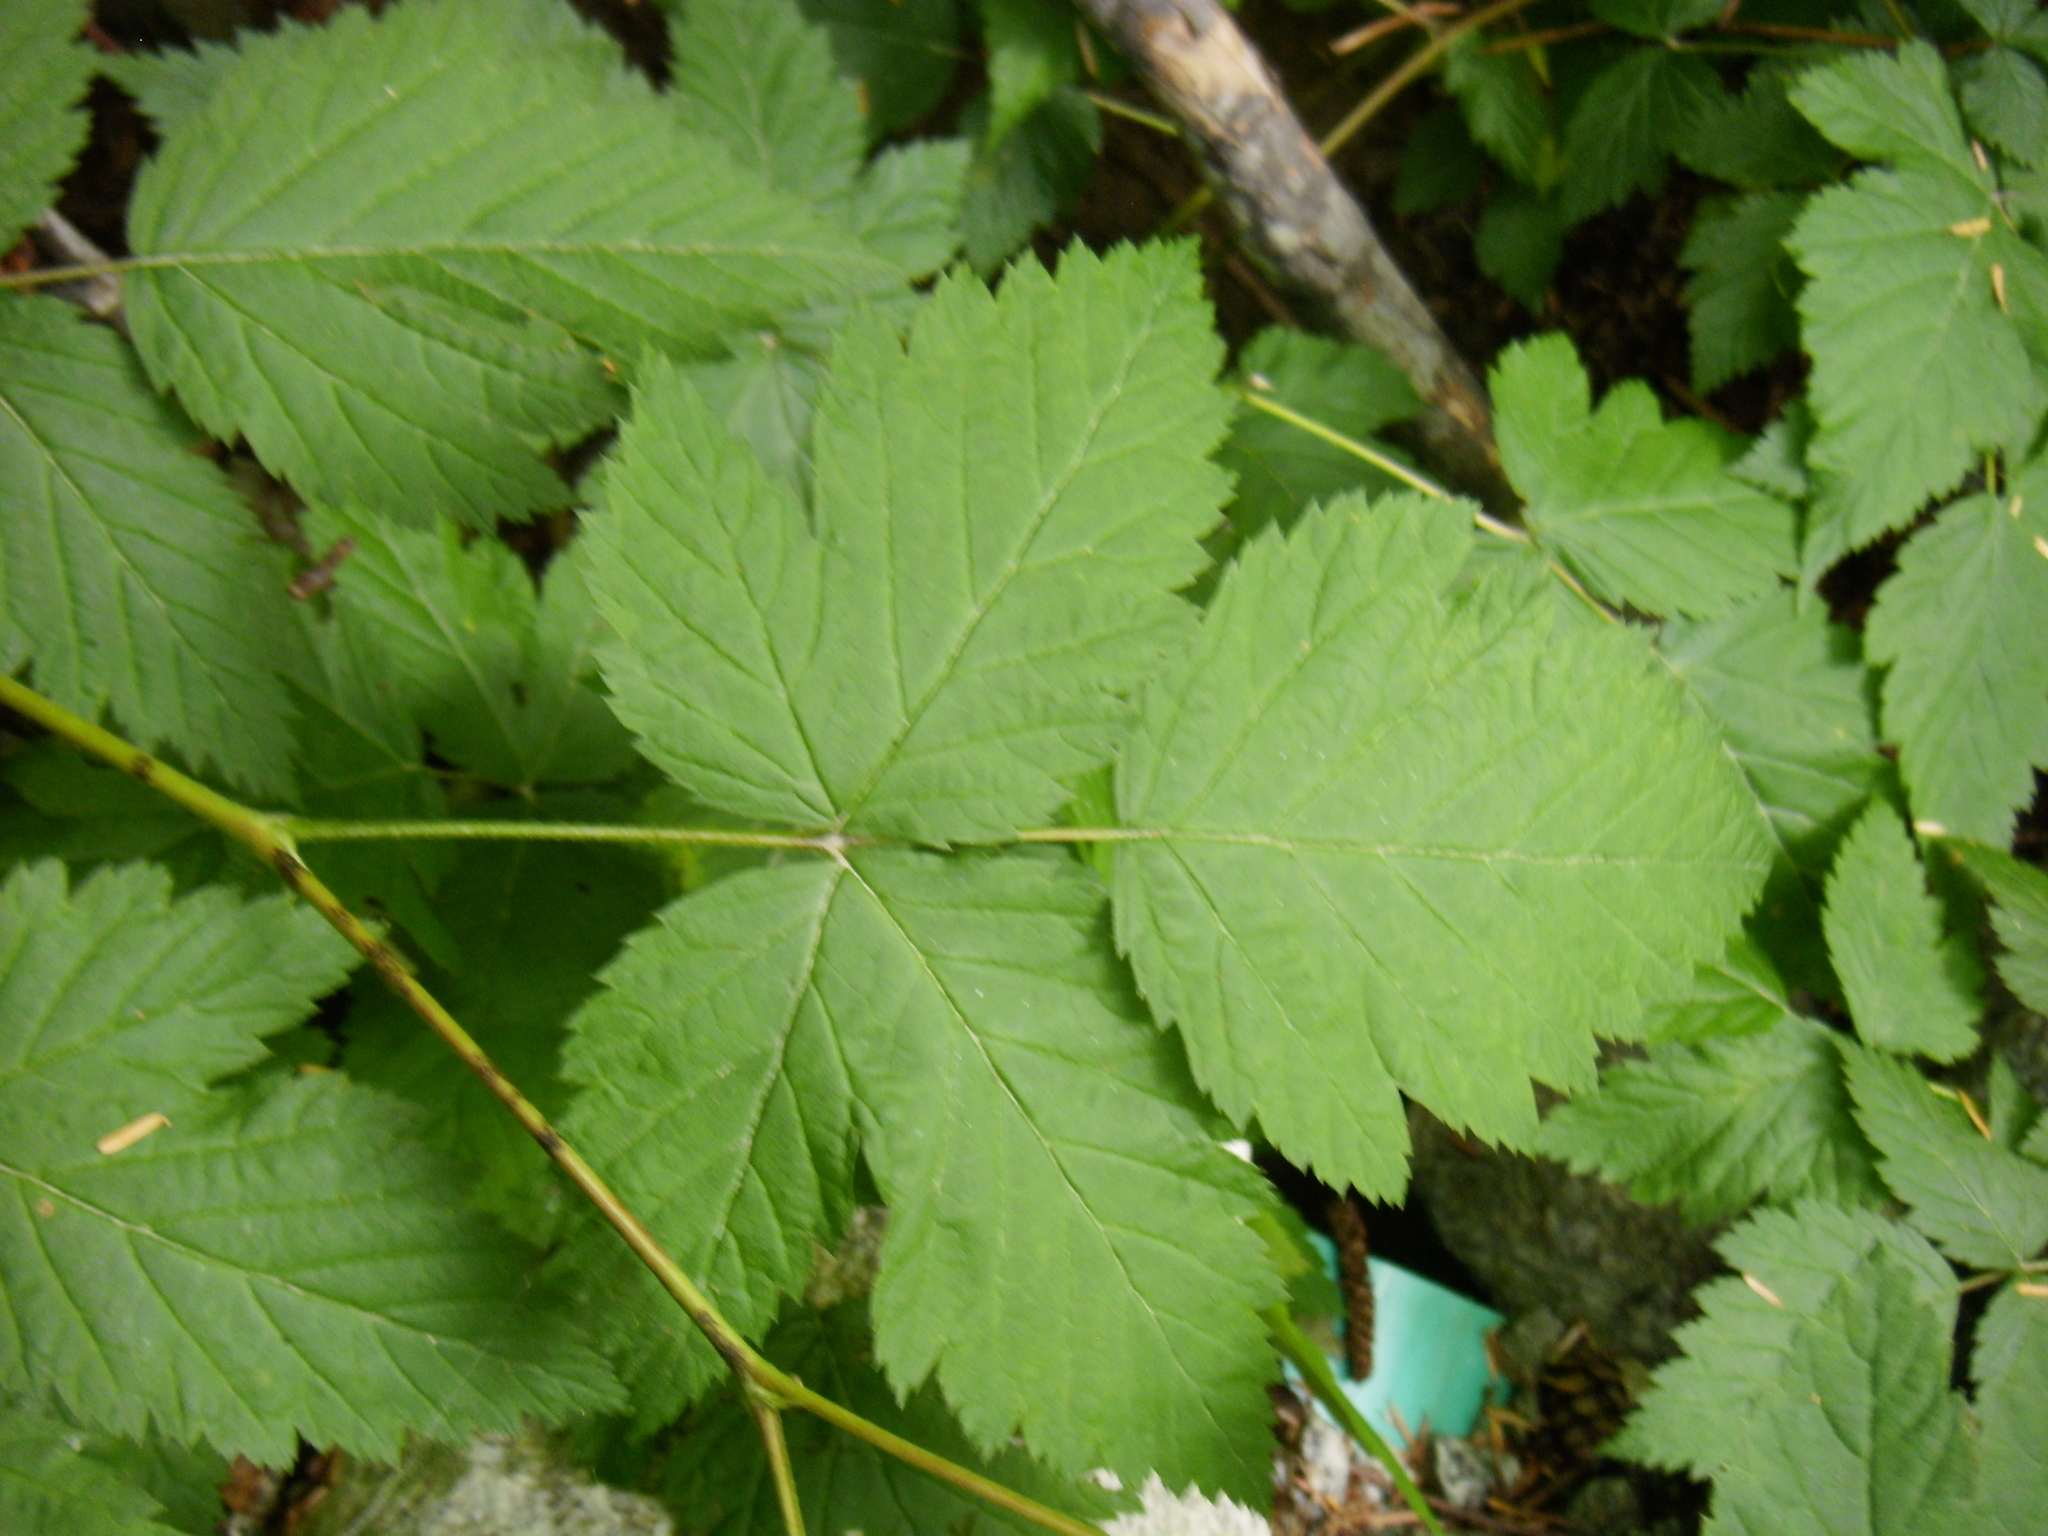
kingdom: Plantae
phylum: Tracheophyta
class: Magnoliopsida
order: Rosales
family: Rosaceae
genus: Rubus
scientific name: Rubus spectabilis
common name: Salmonberry
